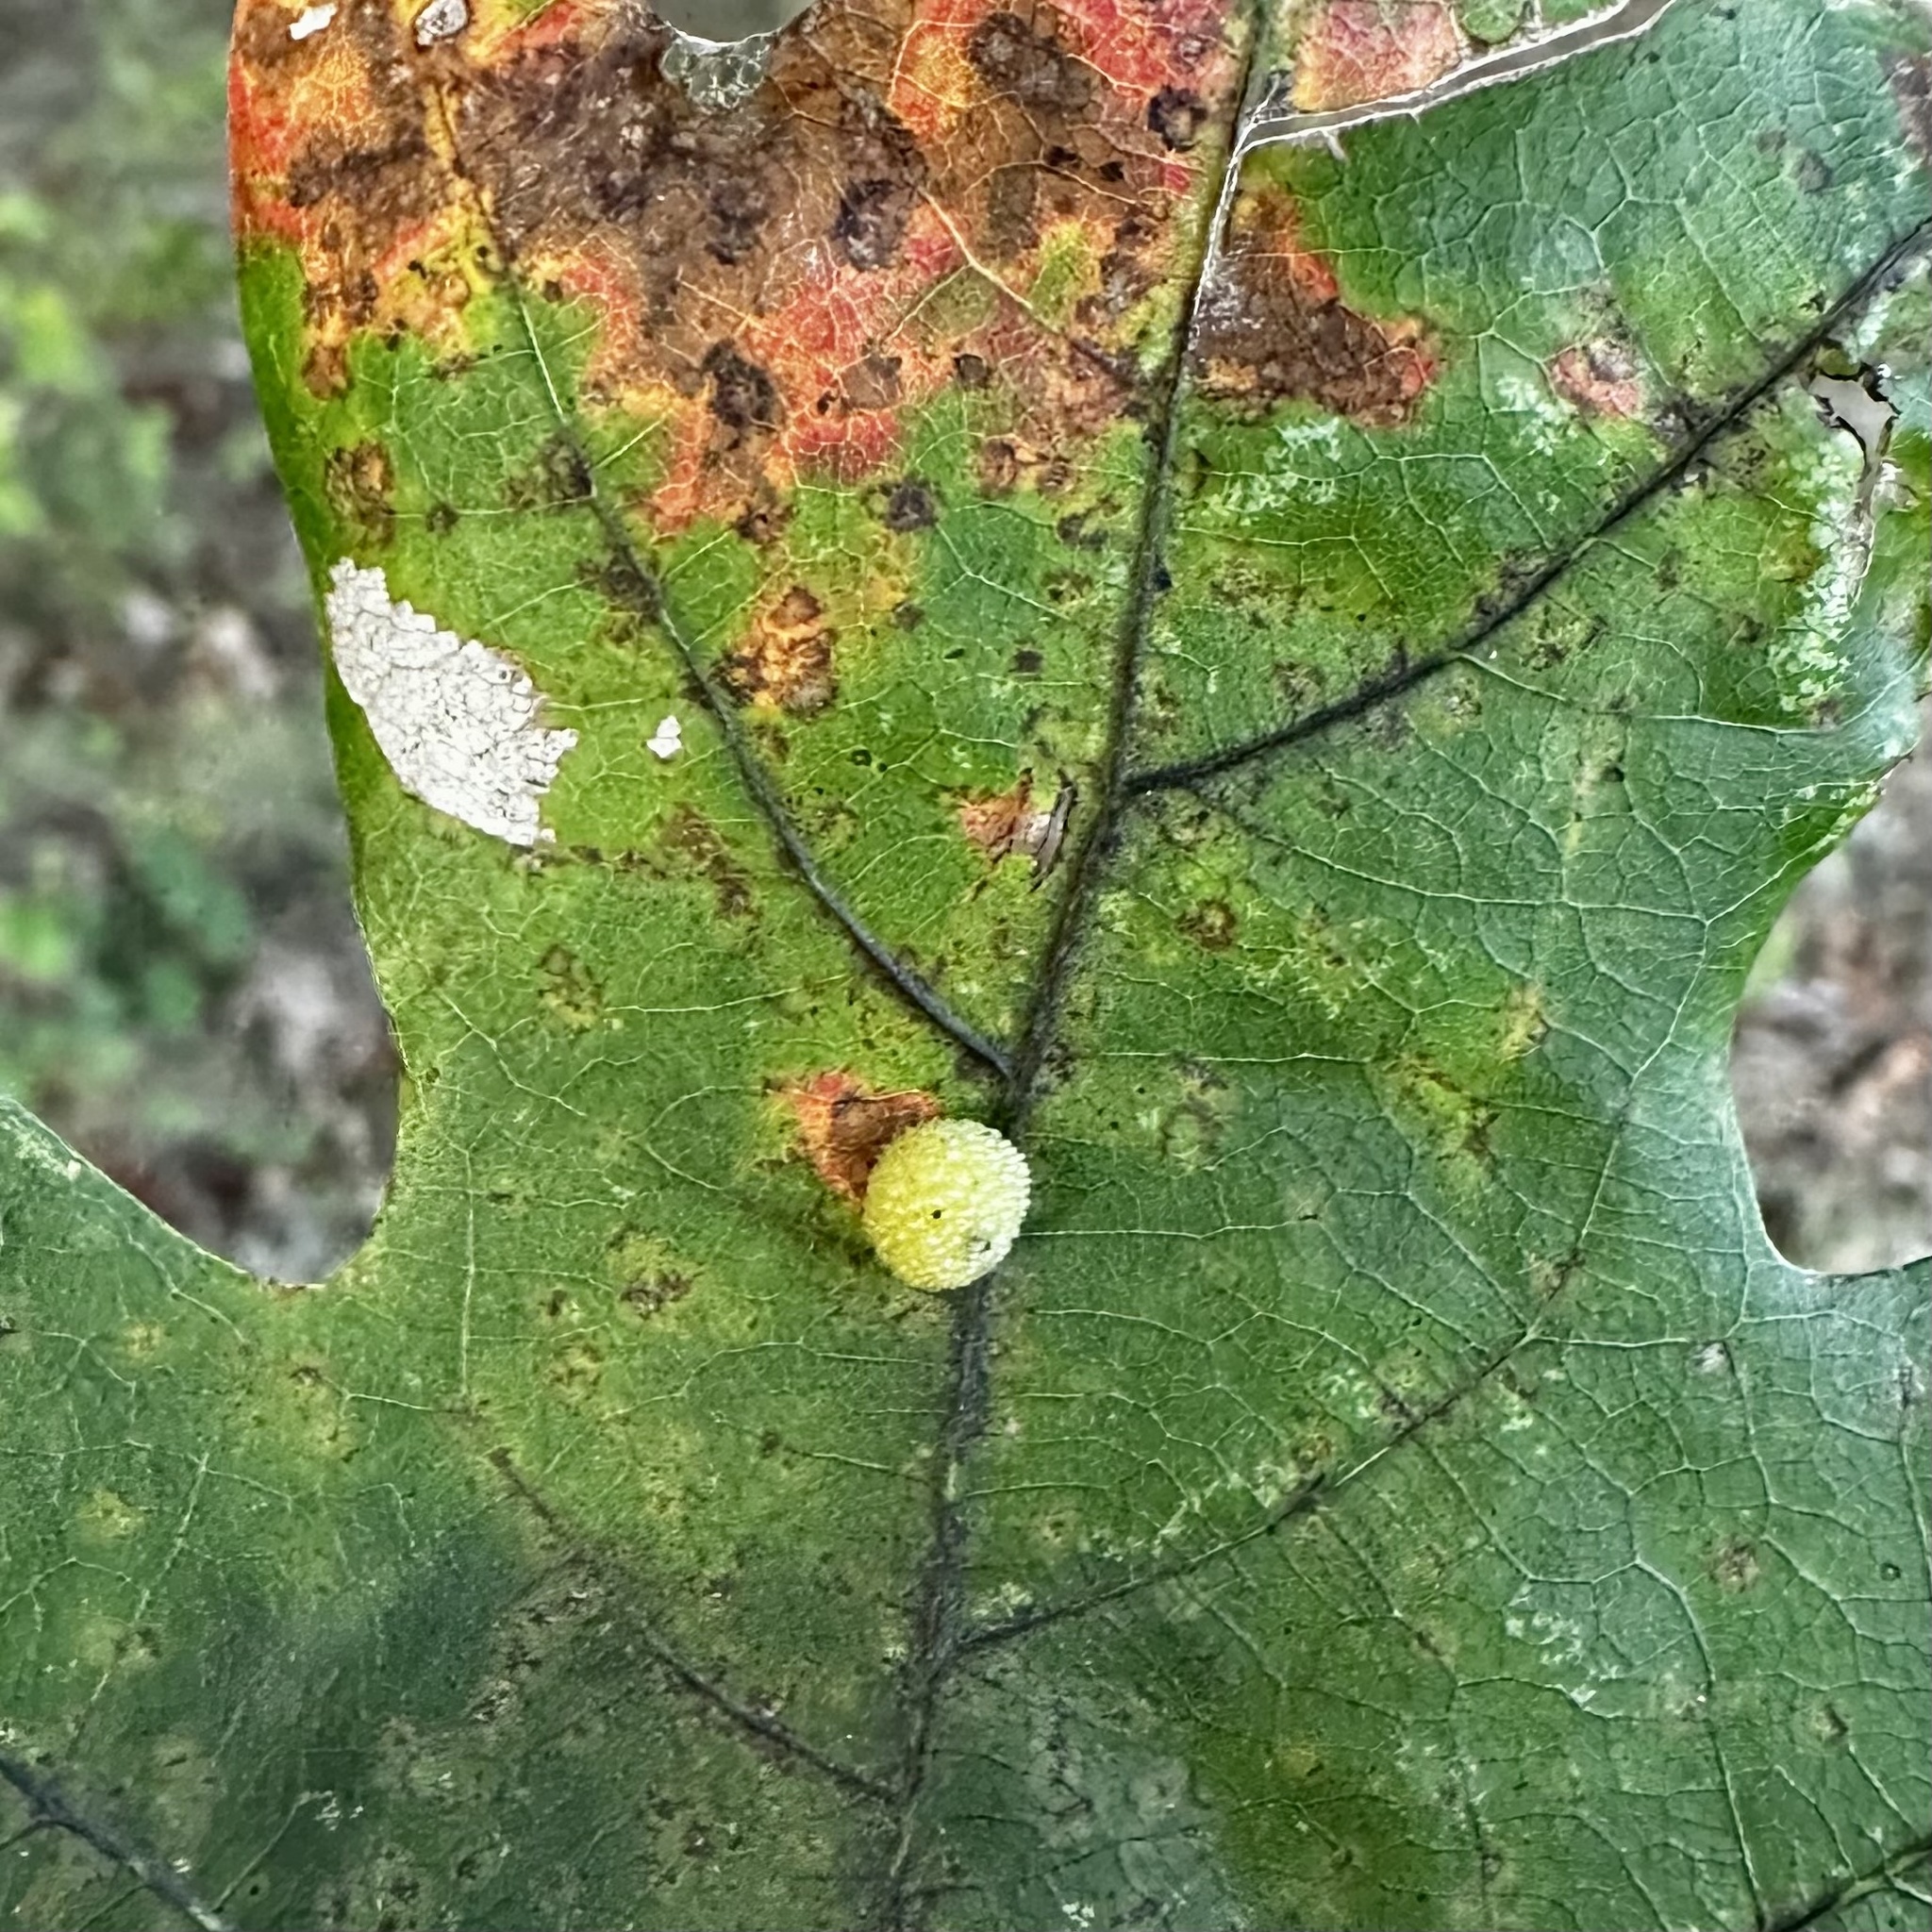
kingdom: Animalia
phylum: Arthropoda
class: Insecta
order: Hymenoptera
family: Cynipidae
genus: Acraspis
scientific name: Acraspis
